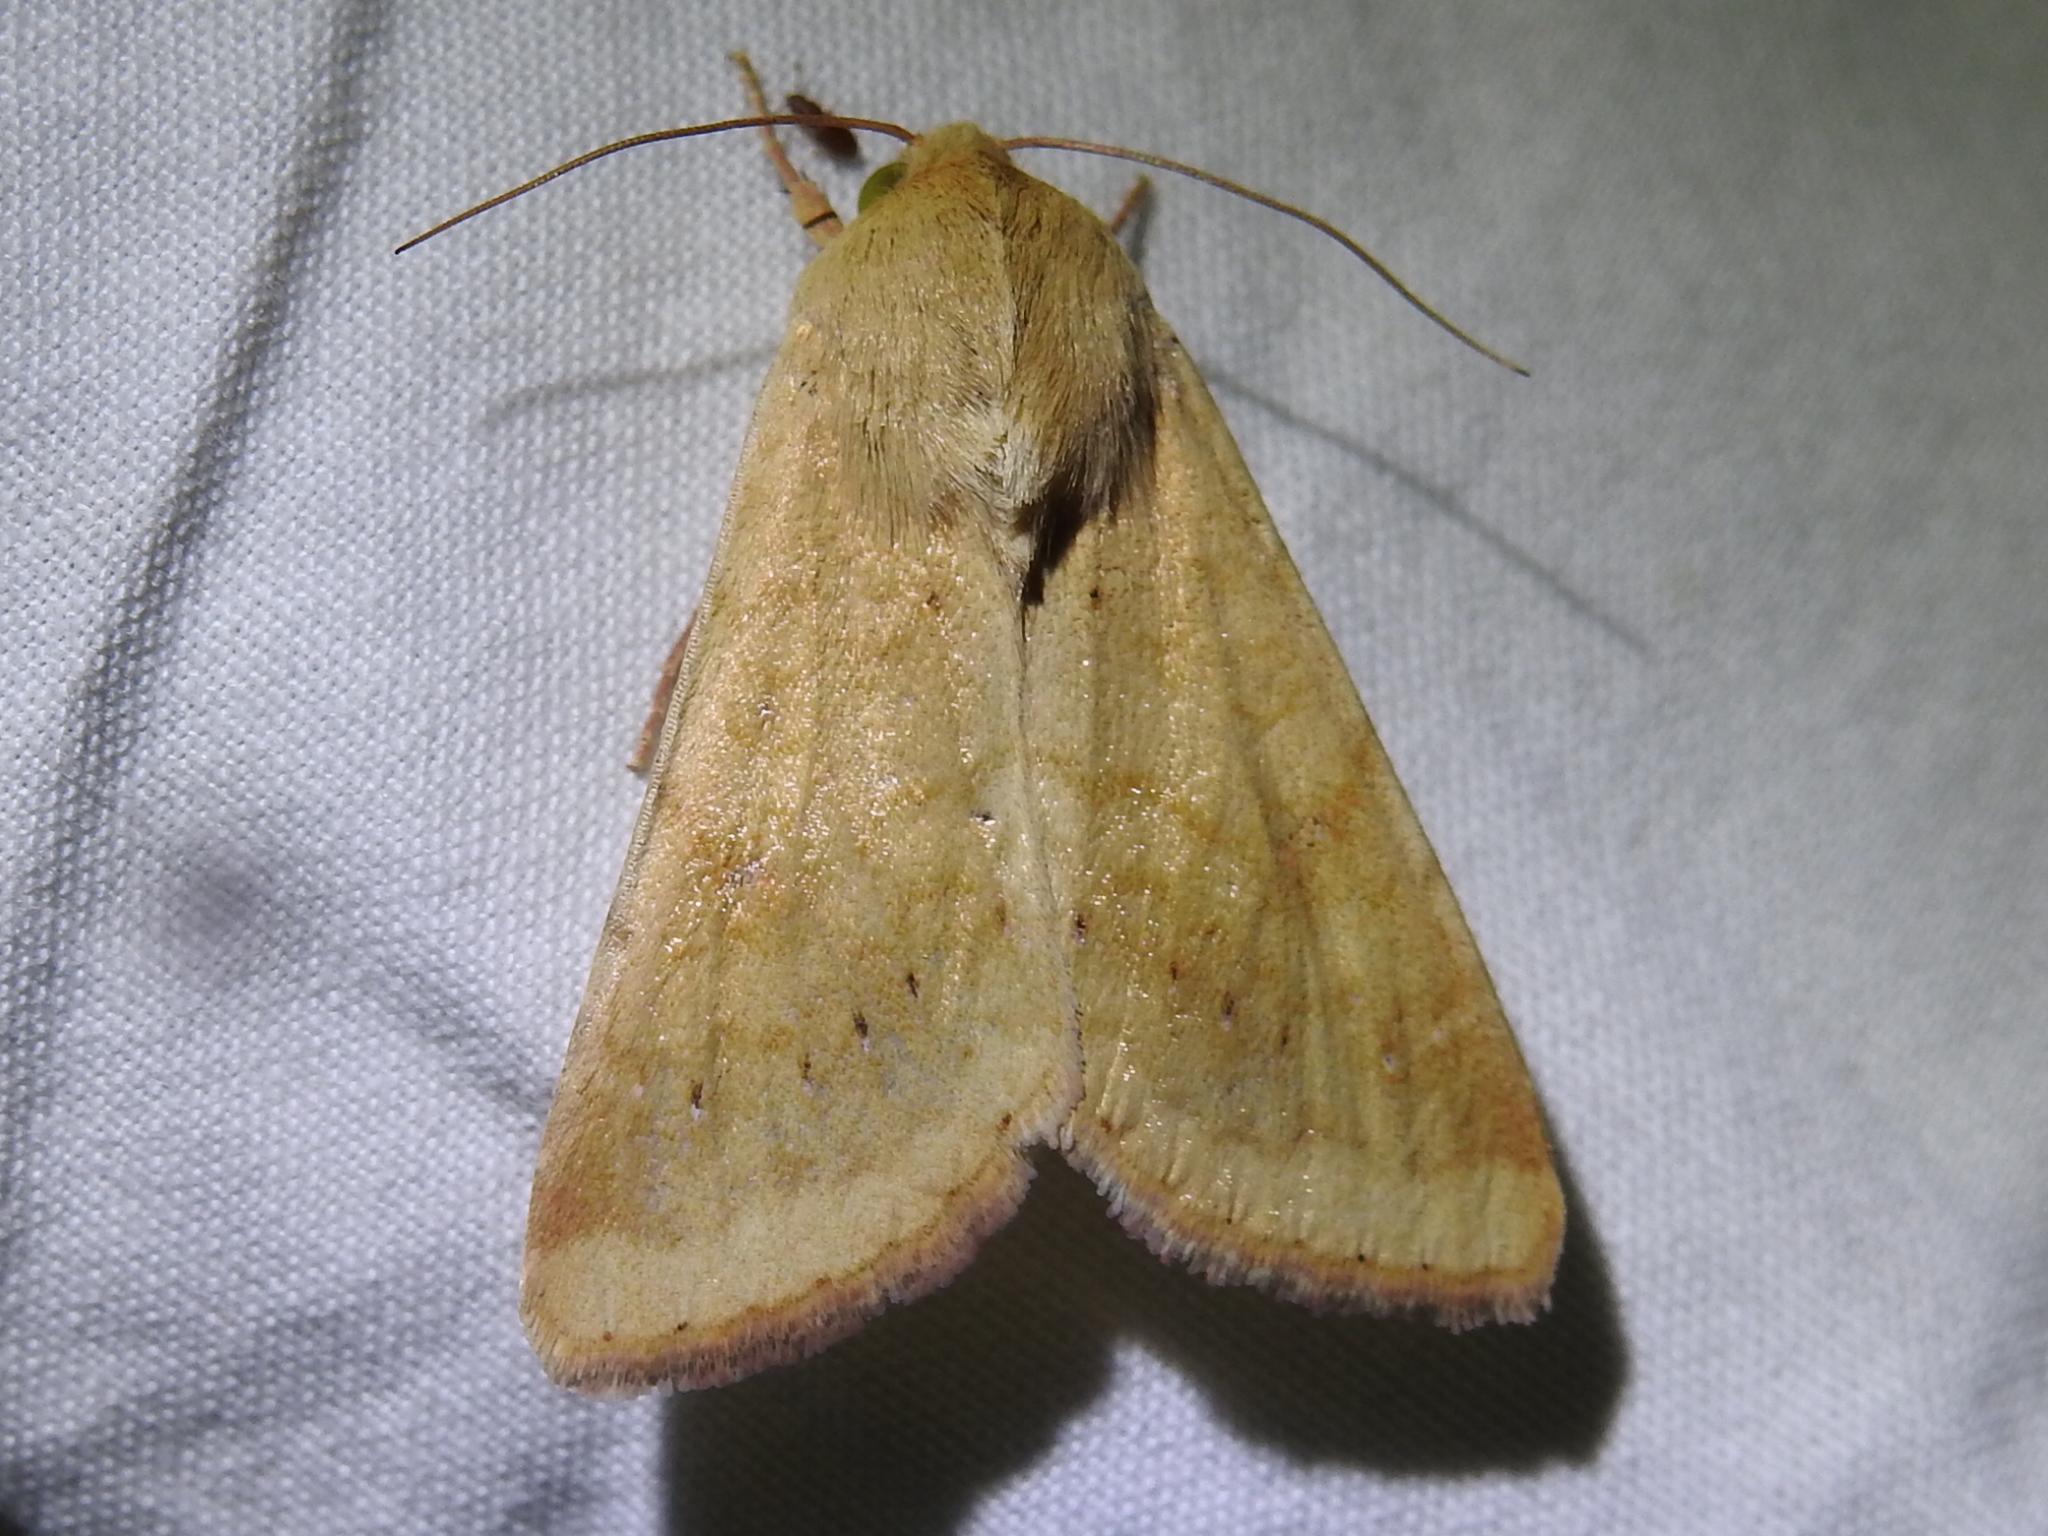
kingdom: Animalia
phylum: Arthropoda
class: Insecta
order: Lepidoptera
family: Noctuidae
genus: Helicoverpa
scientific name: Helicoverpa zea
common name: Bollworm
